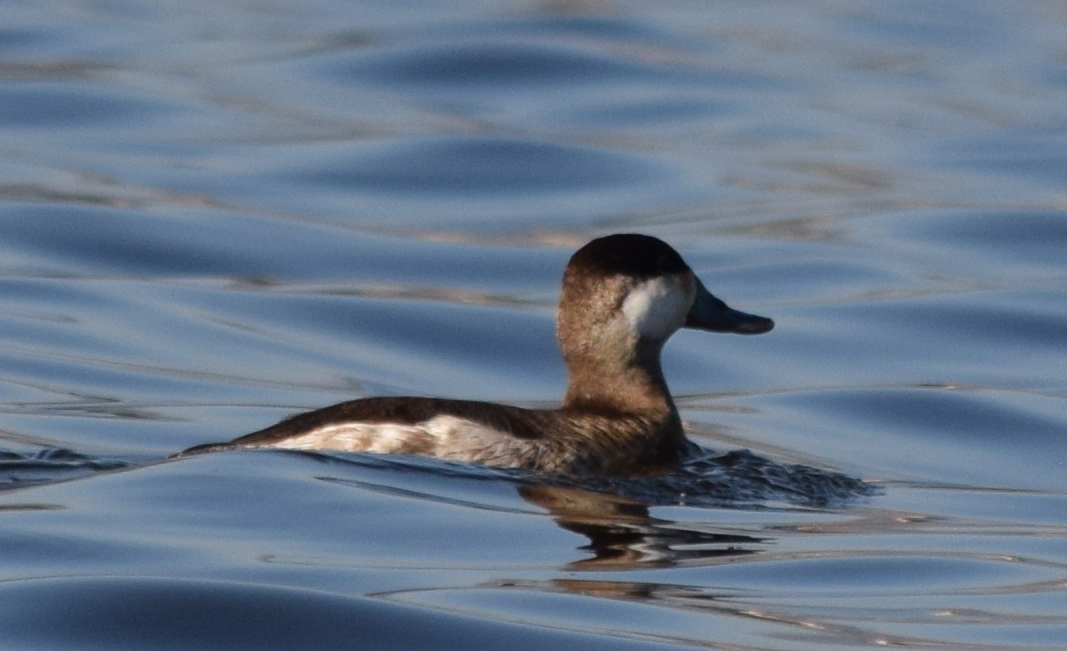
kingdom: Animalia
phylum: Chordata
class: Aves
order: Anseriformes
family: Anatidae
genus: Oxyura
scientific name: Oxyura jamaicensis
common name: Ruddy duck
